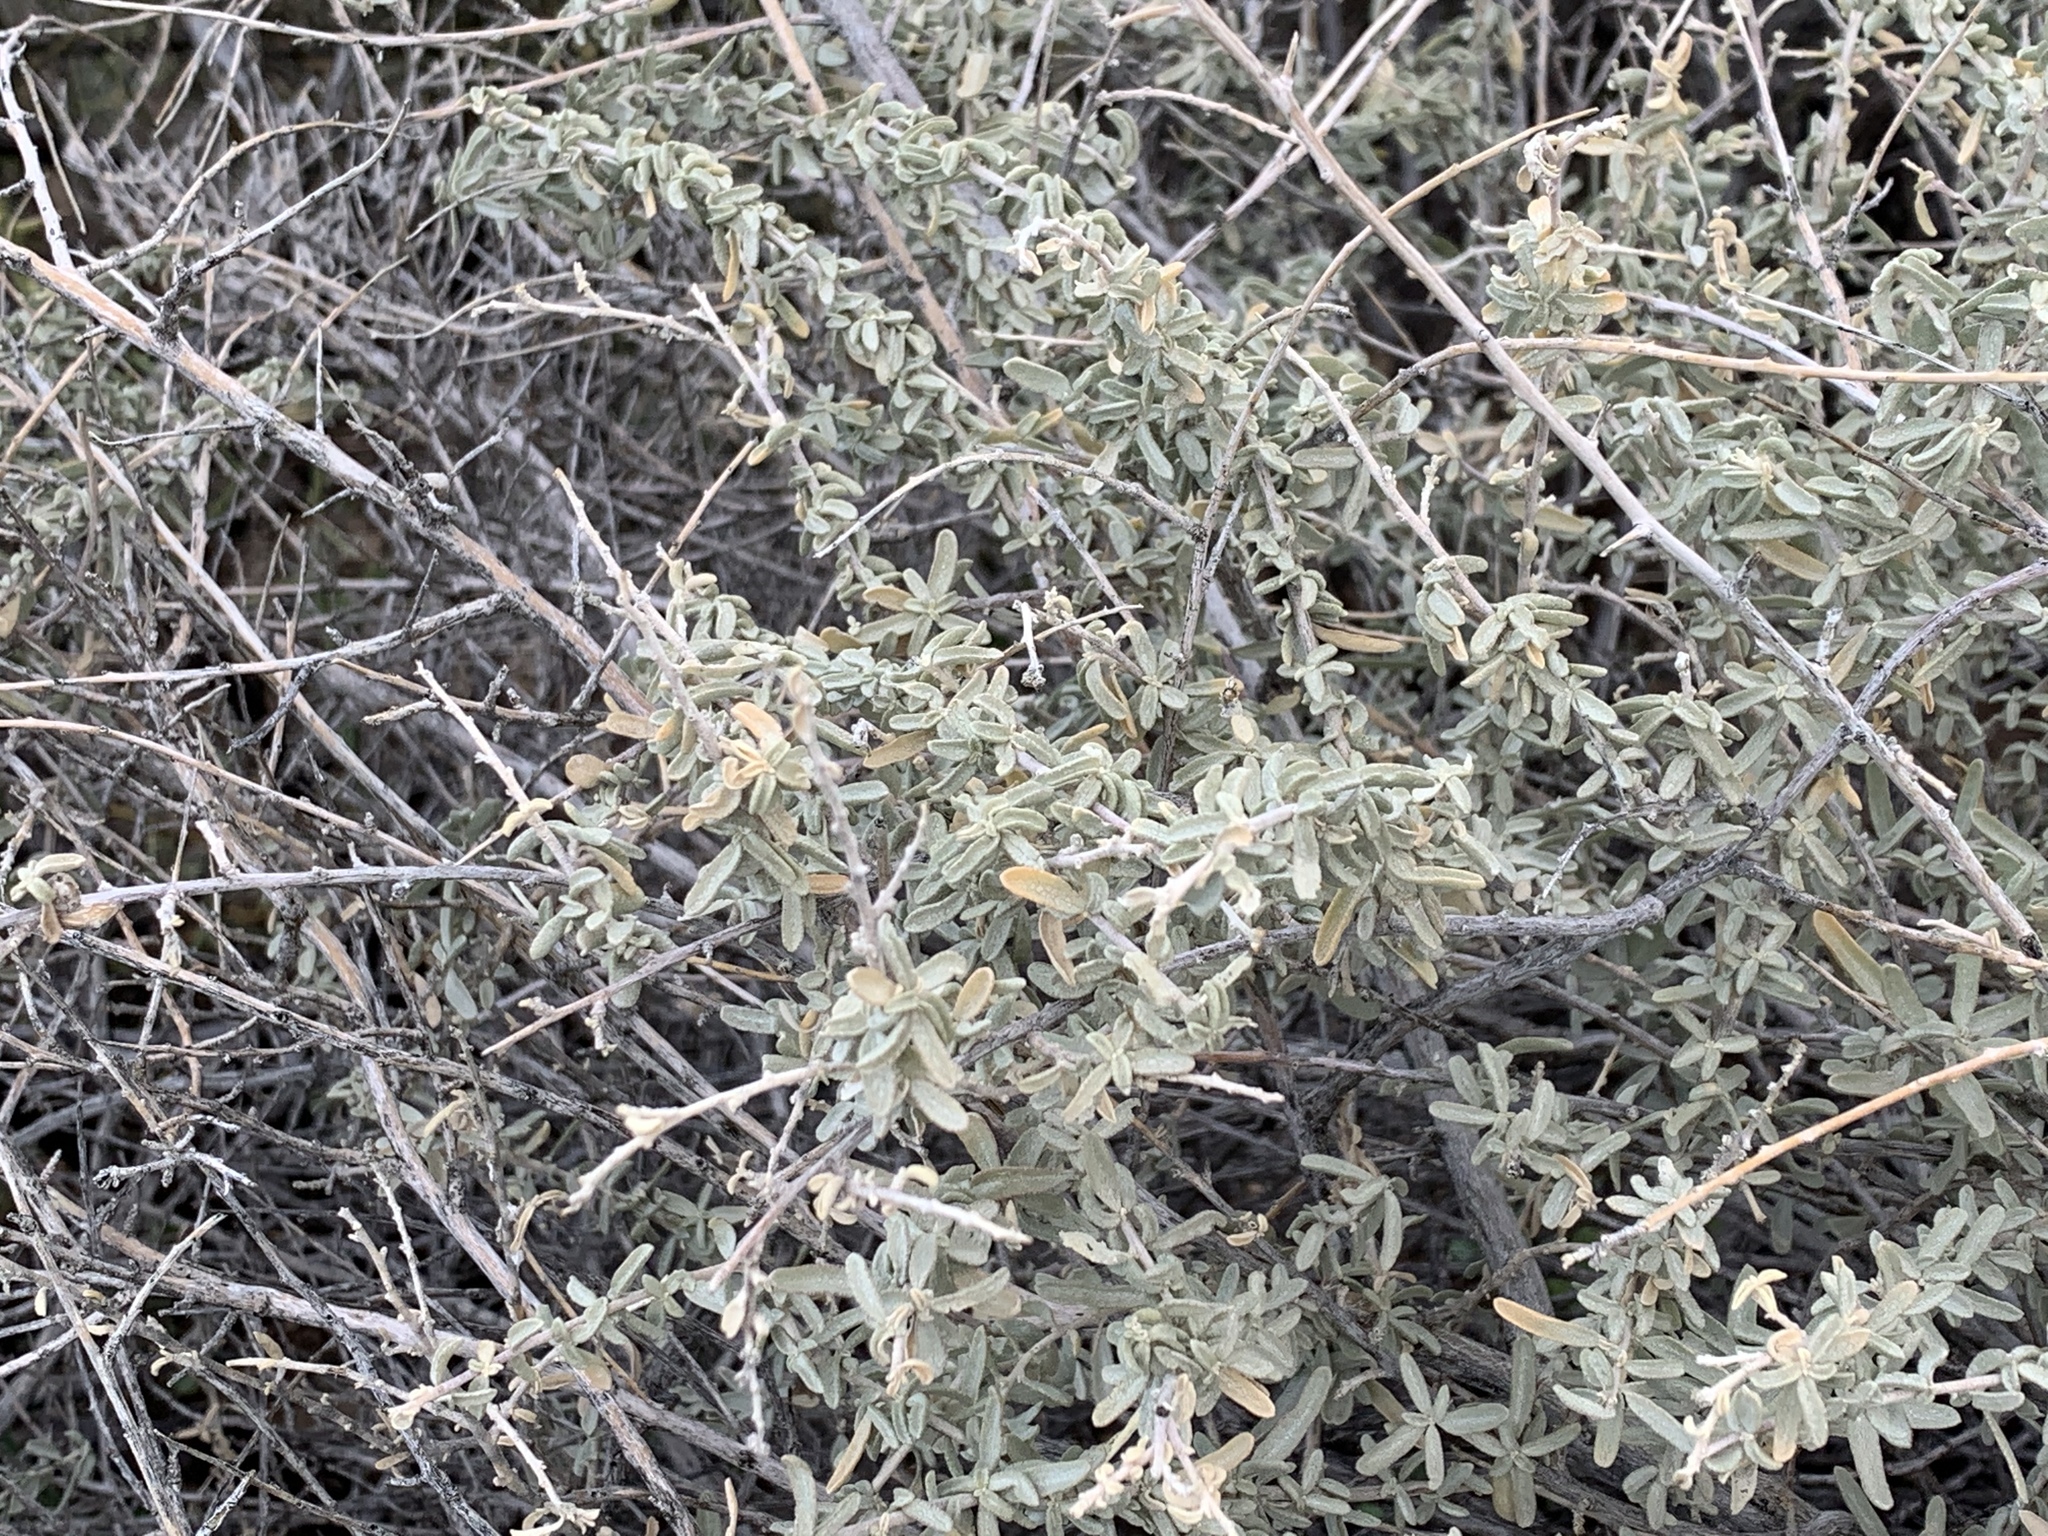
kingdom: Plantae
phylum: Tracheophyta
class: Magnoliopsida
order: Caryophyllales
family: Amaranthaceae
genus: Atriplex
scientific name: Atriplex canescens
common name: Four-wing saltbush
